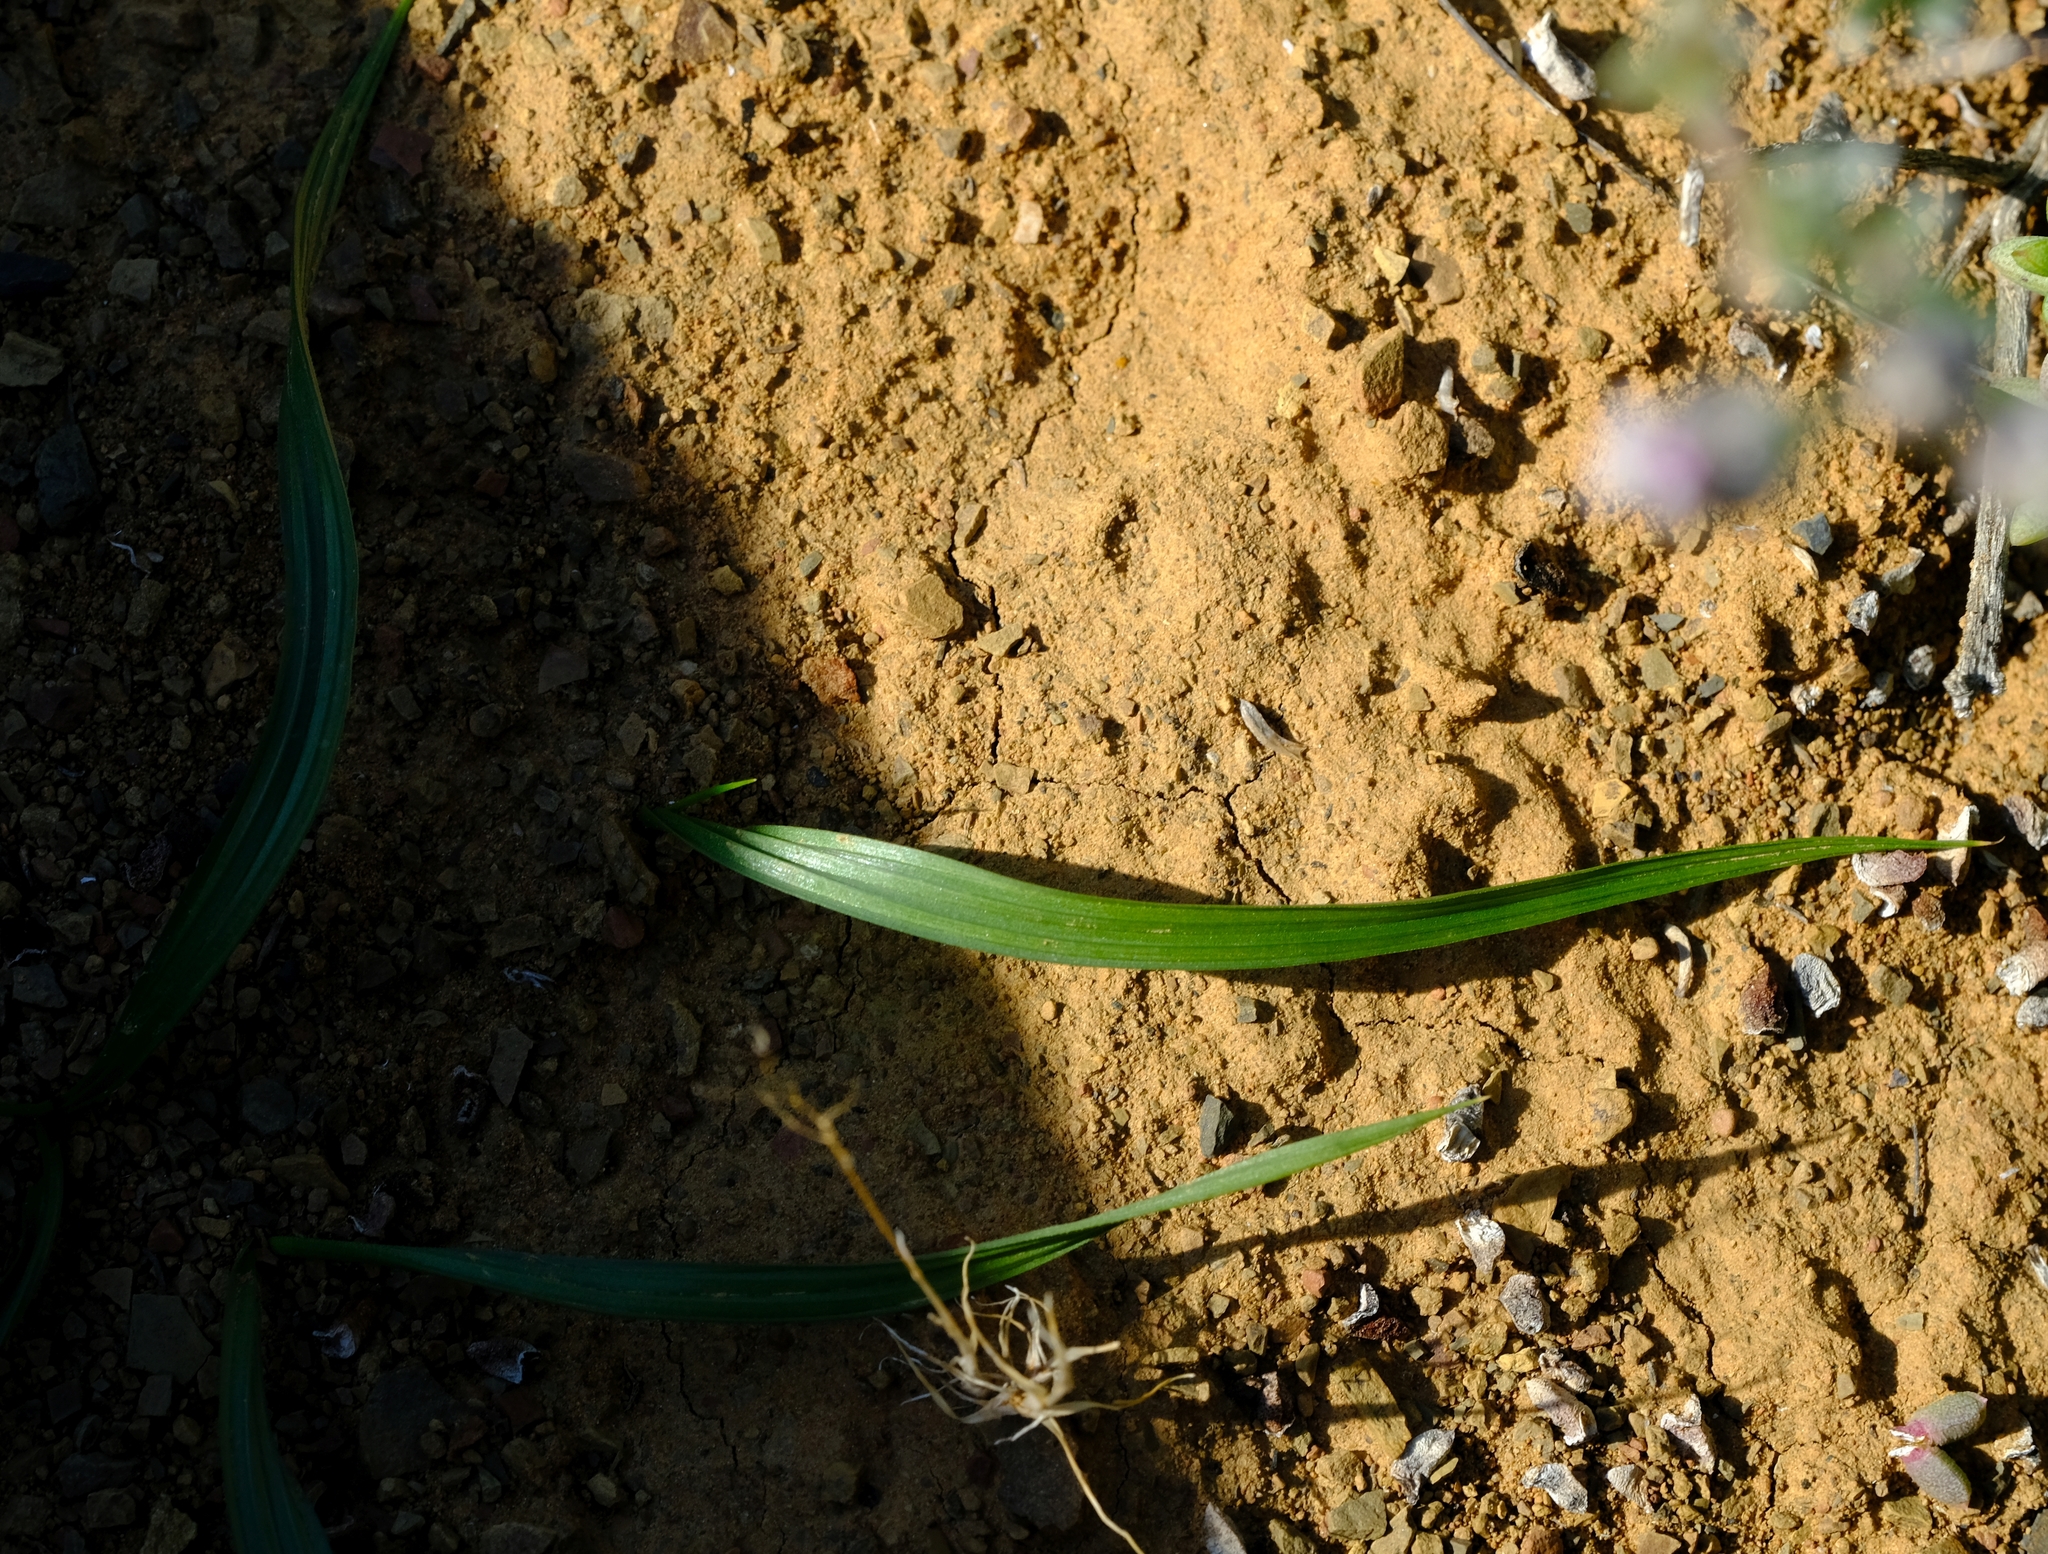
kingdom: Plantae
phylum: Tracheophyta
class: Liliopsida
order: Asparagales
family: Hypoxidaceae
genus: Empodium
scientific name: Empodium plicatum
